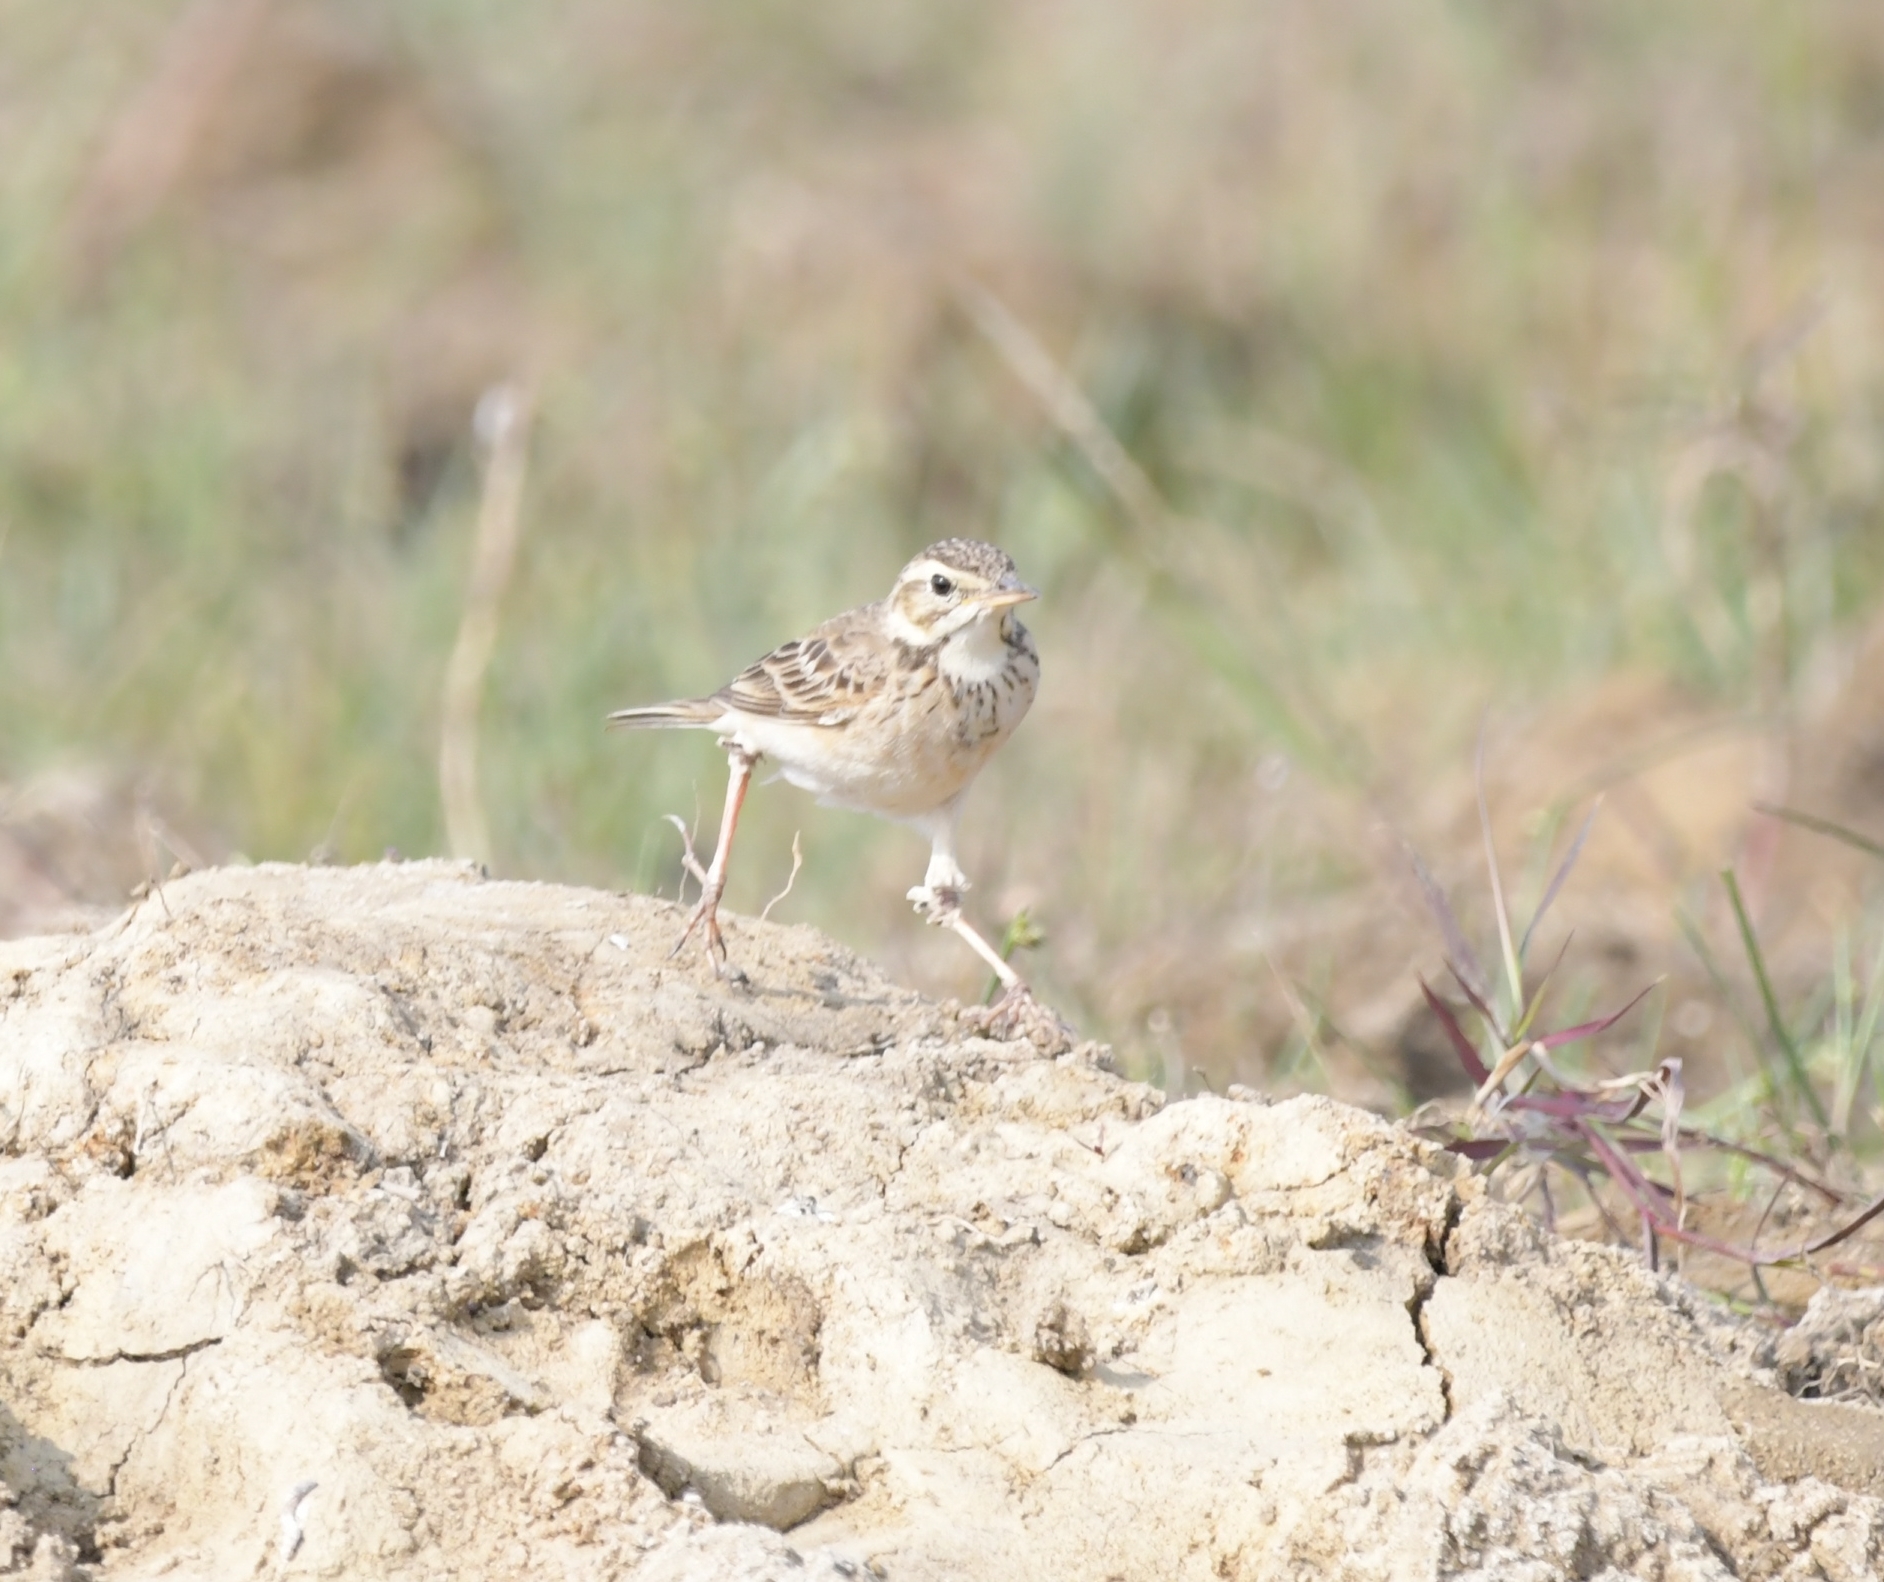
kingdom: Animalia
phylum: Chordata
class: Aves
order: Passeriformes
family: Motacillidae
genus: Anthus
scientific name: Anthus rufulus
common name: Paddyfield pipit
